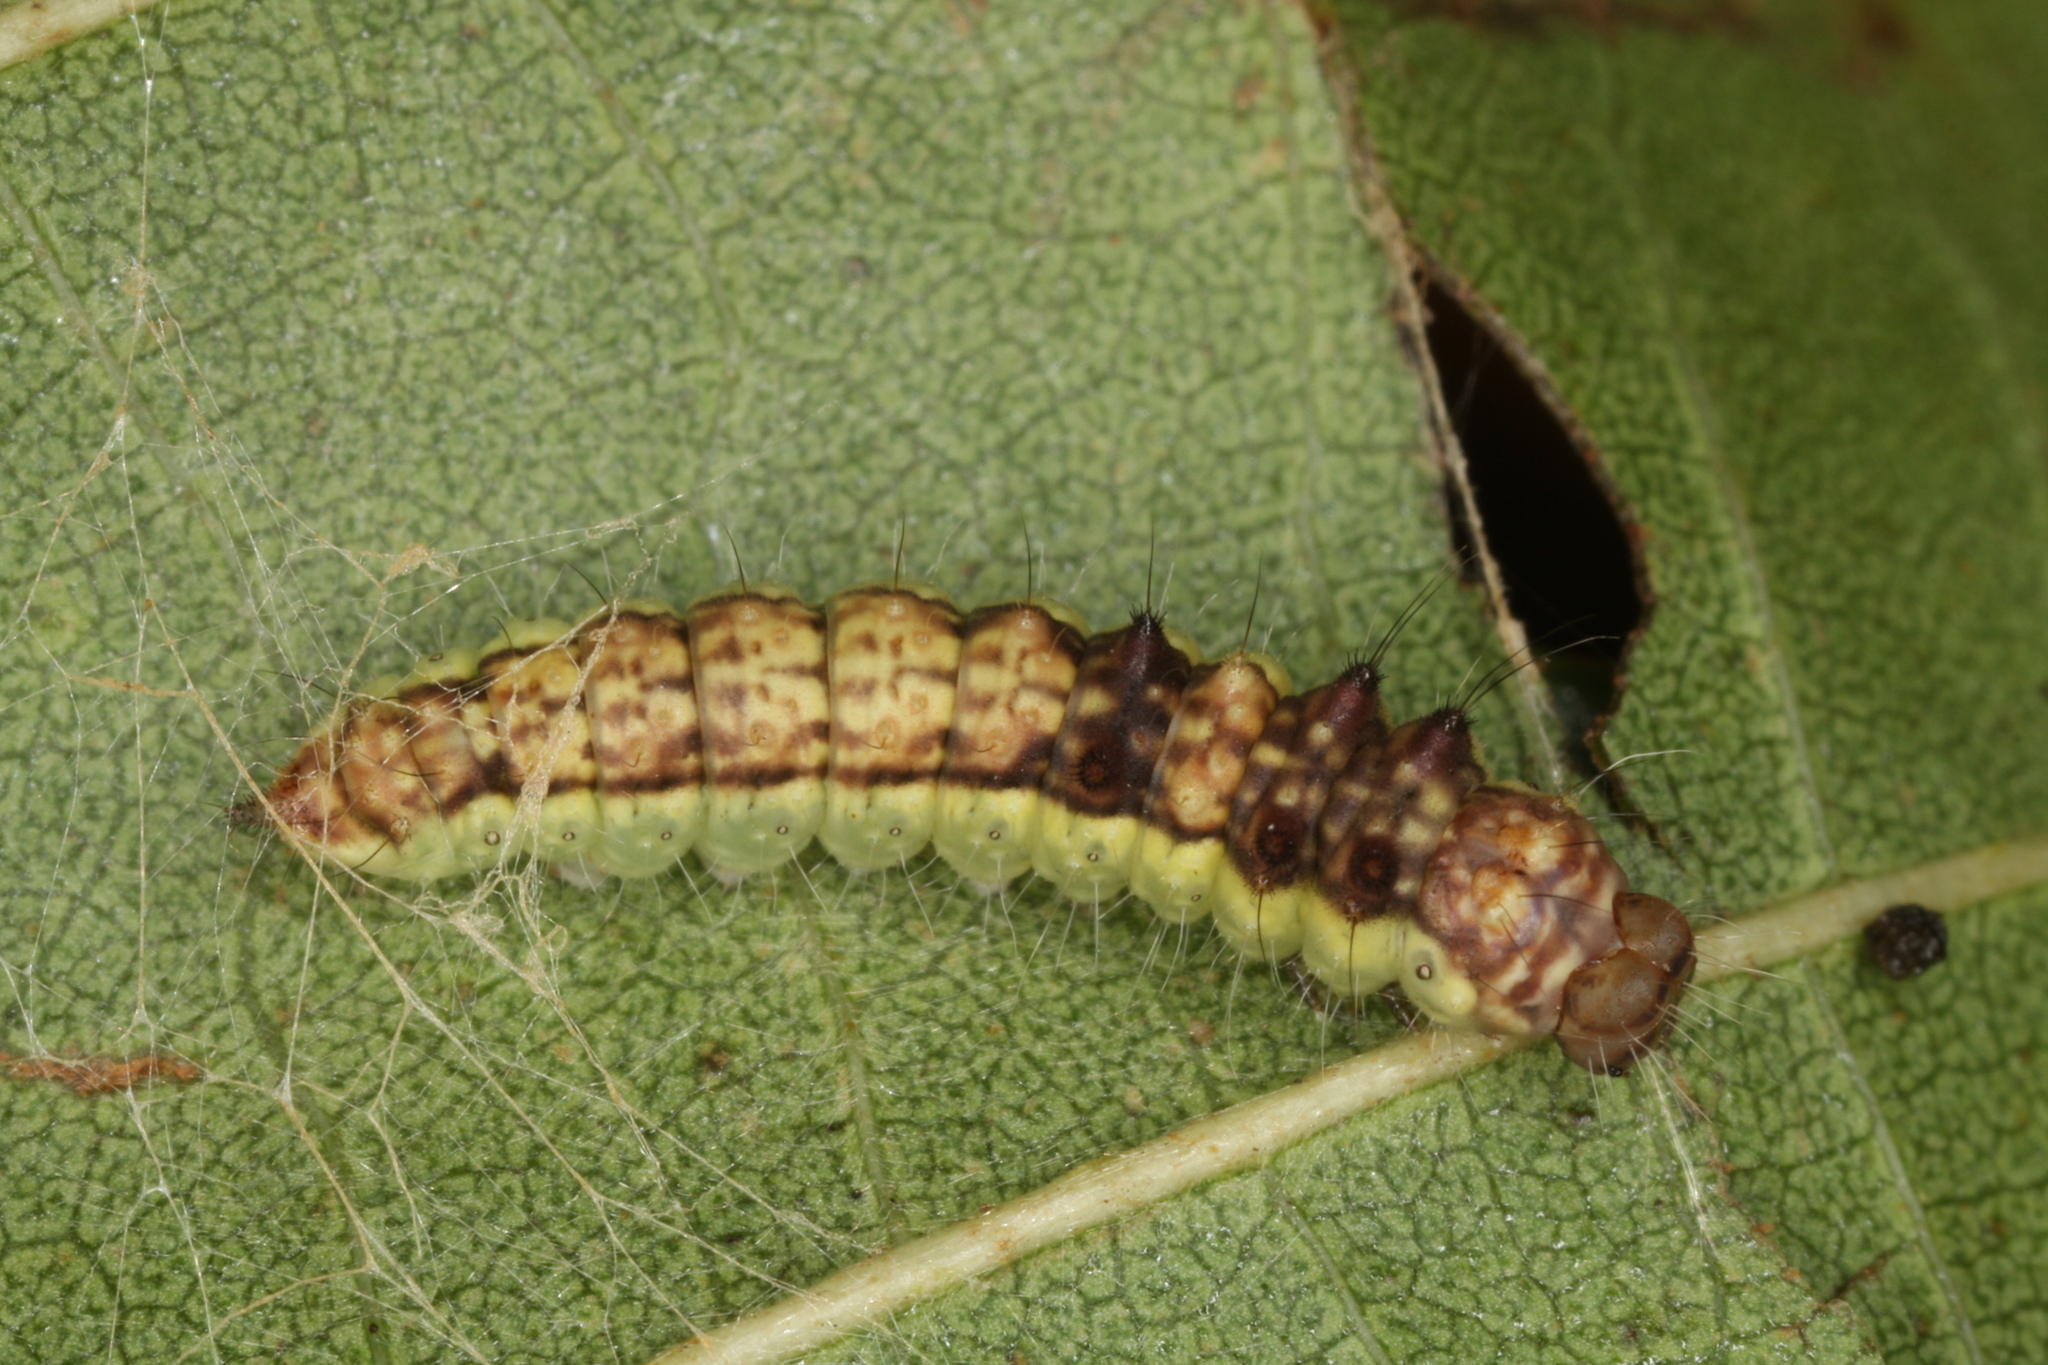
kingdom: Animalia
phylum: Arthropoda
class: Insecta
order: Lepidoptera
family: Drepanidae
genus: Drepana
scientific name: Drepana falcataria
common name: Pebble hook-tip
